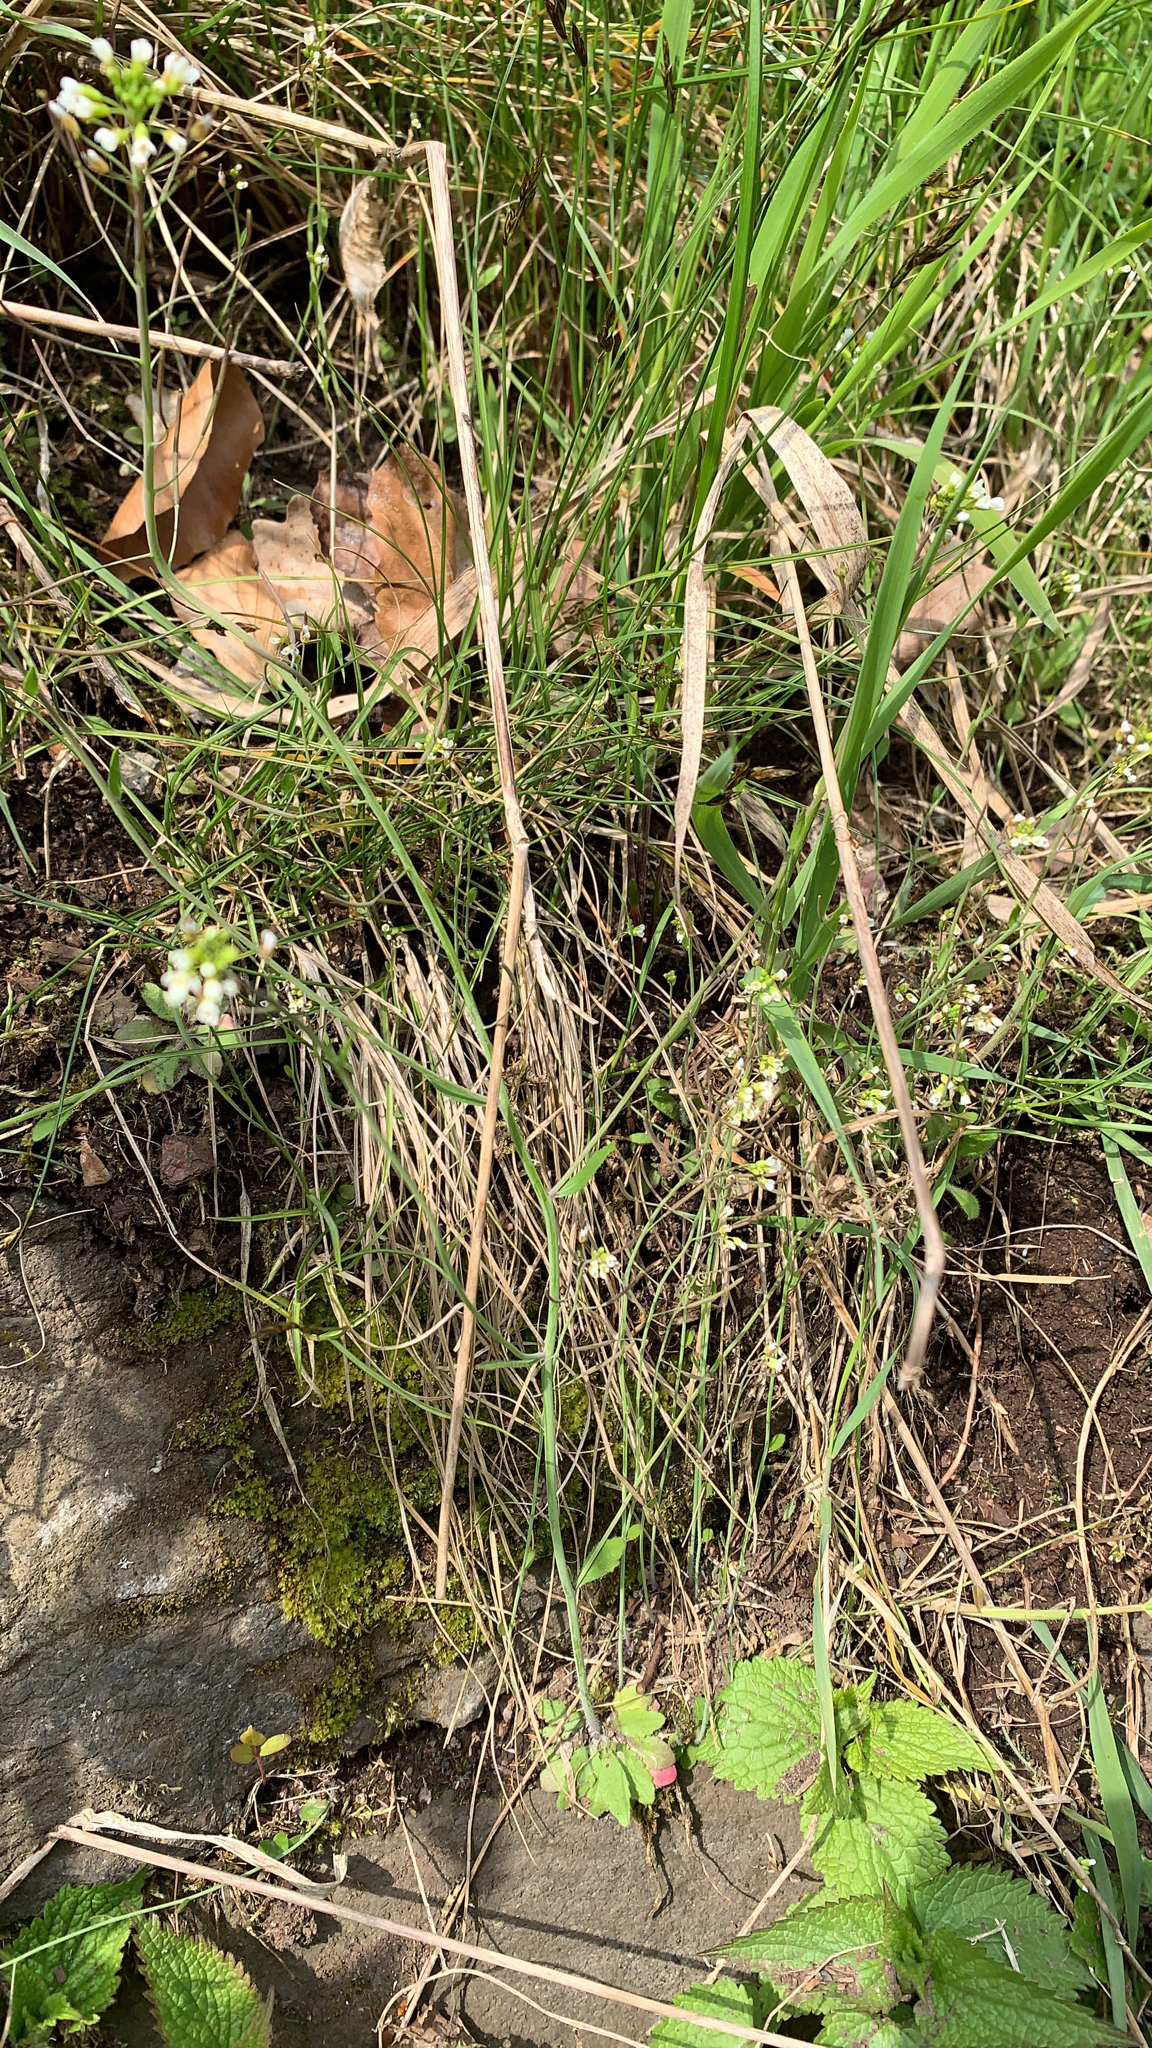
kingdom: Plantae
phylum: Tracheophyta
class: Magnoliopsida
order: Brassicales
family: Brassicaceae
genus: Arabidopsis
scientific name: Arabidopsis thaliana
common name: Thale cress
